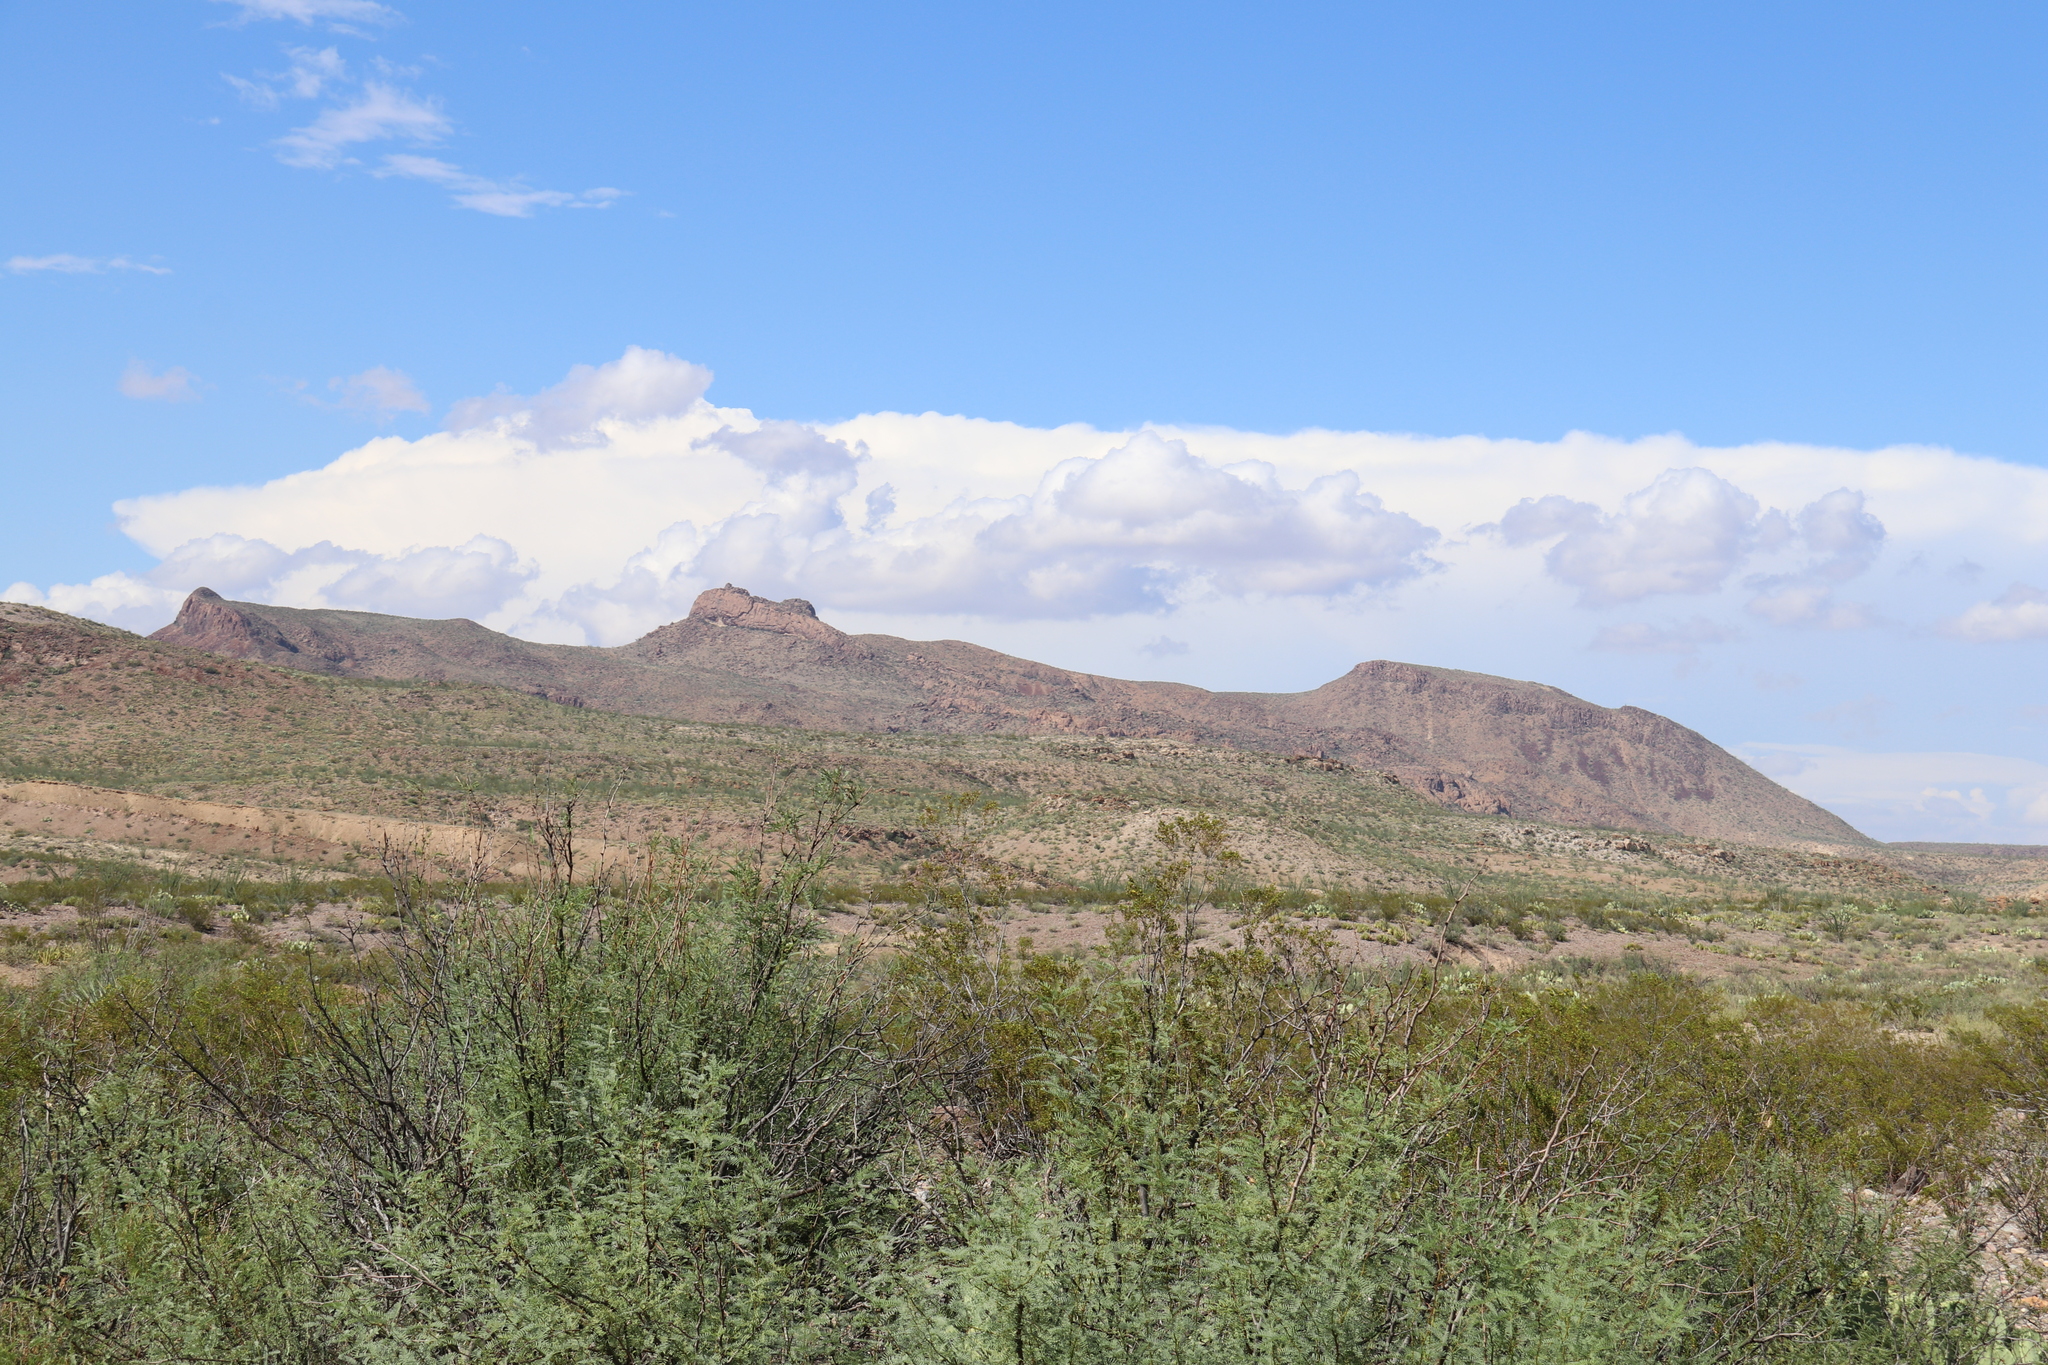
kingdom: Plantae
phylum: Tracheophyta
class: Magnoliopsida
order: Fabales
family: Fabaceae
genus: Prosopis
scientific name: Prosopis glandulosa
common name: Honey mesquite
